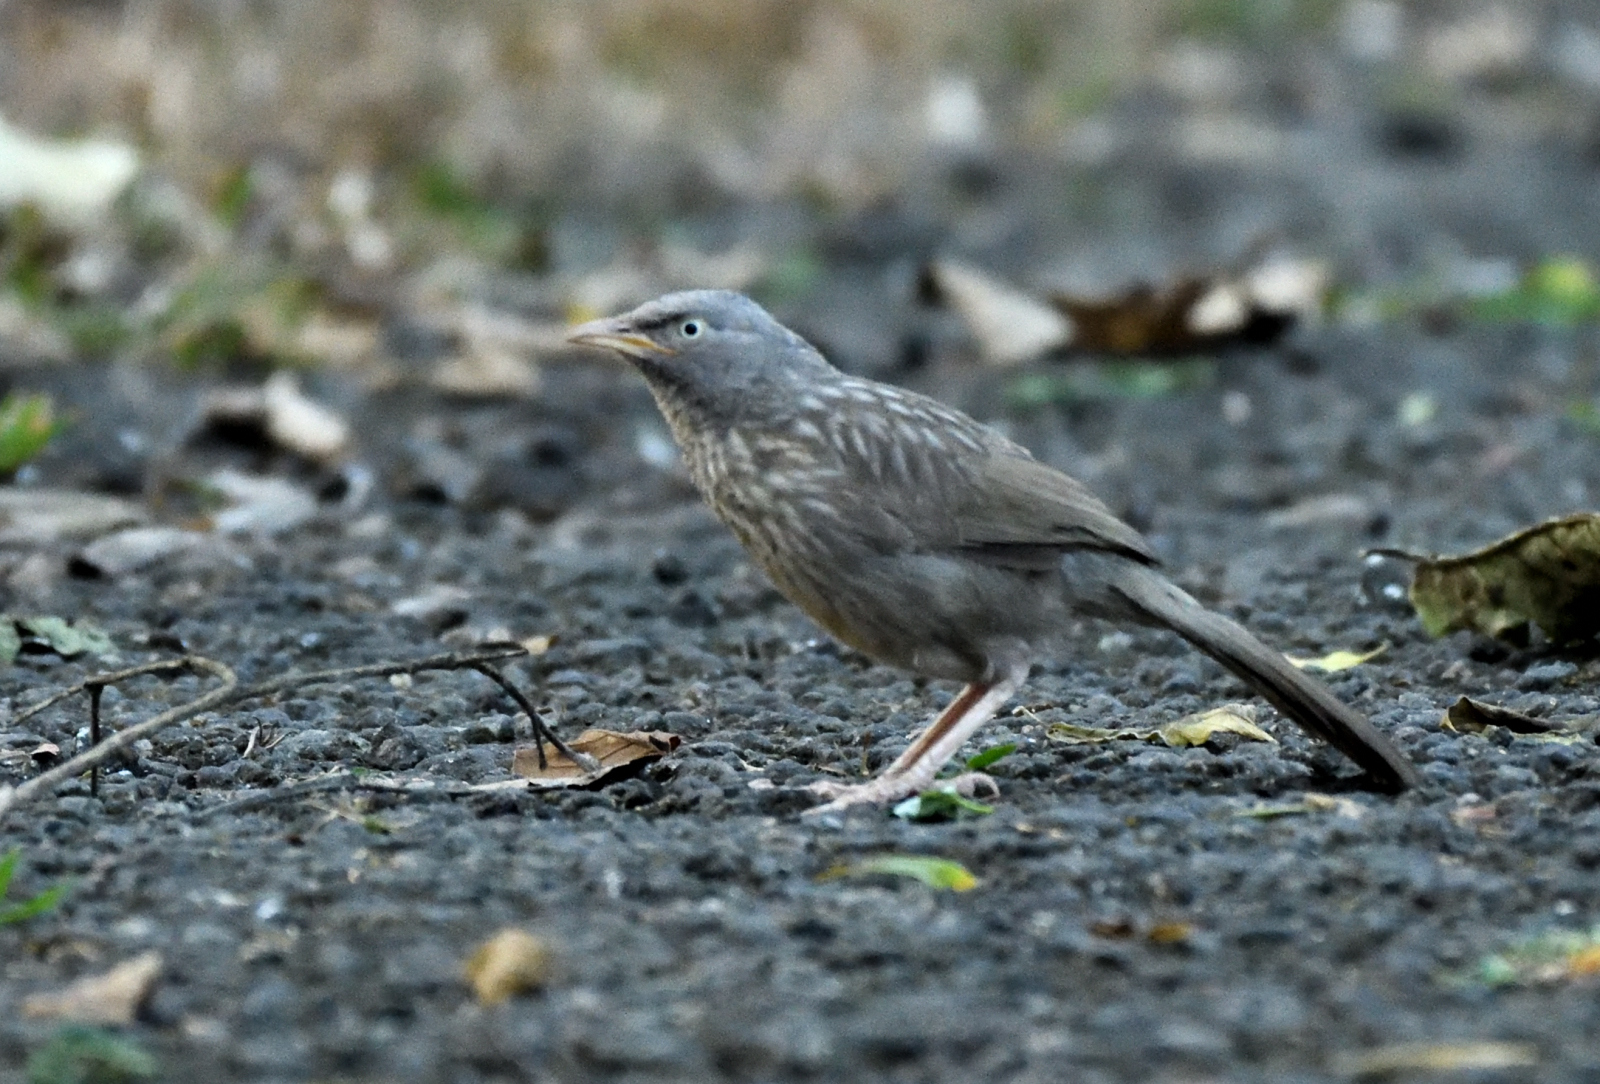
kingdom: Animalia
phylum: Chordata
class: Aves
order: Passeriformes
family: Leiothrichidae
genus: Turdoides
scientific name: Turdoides striata
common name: Jungle babbler
